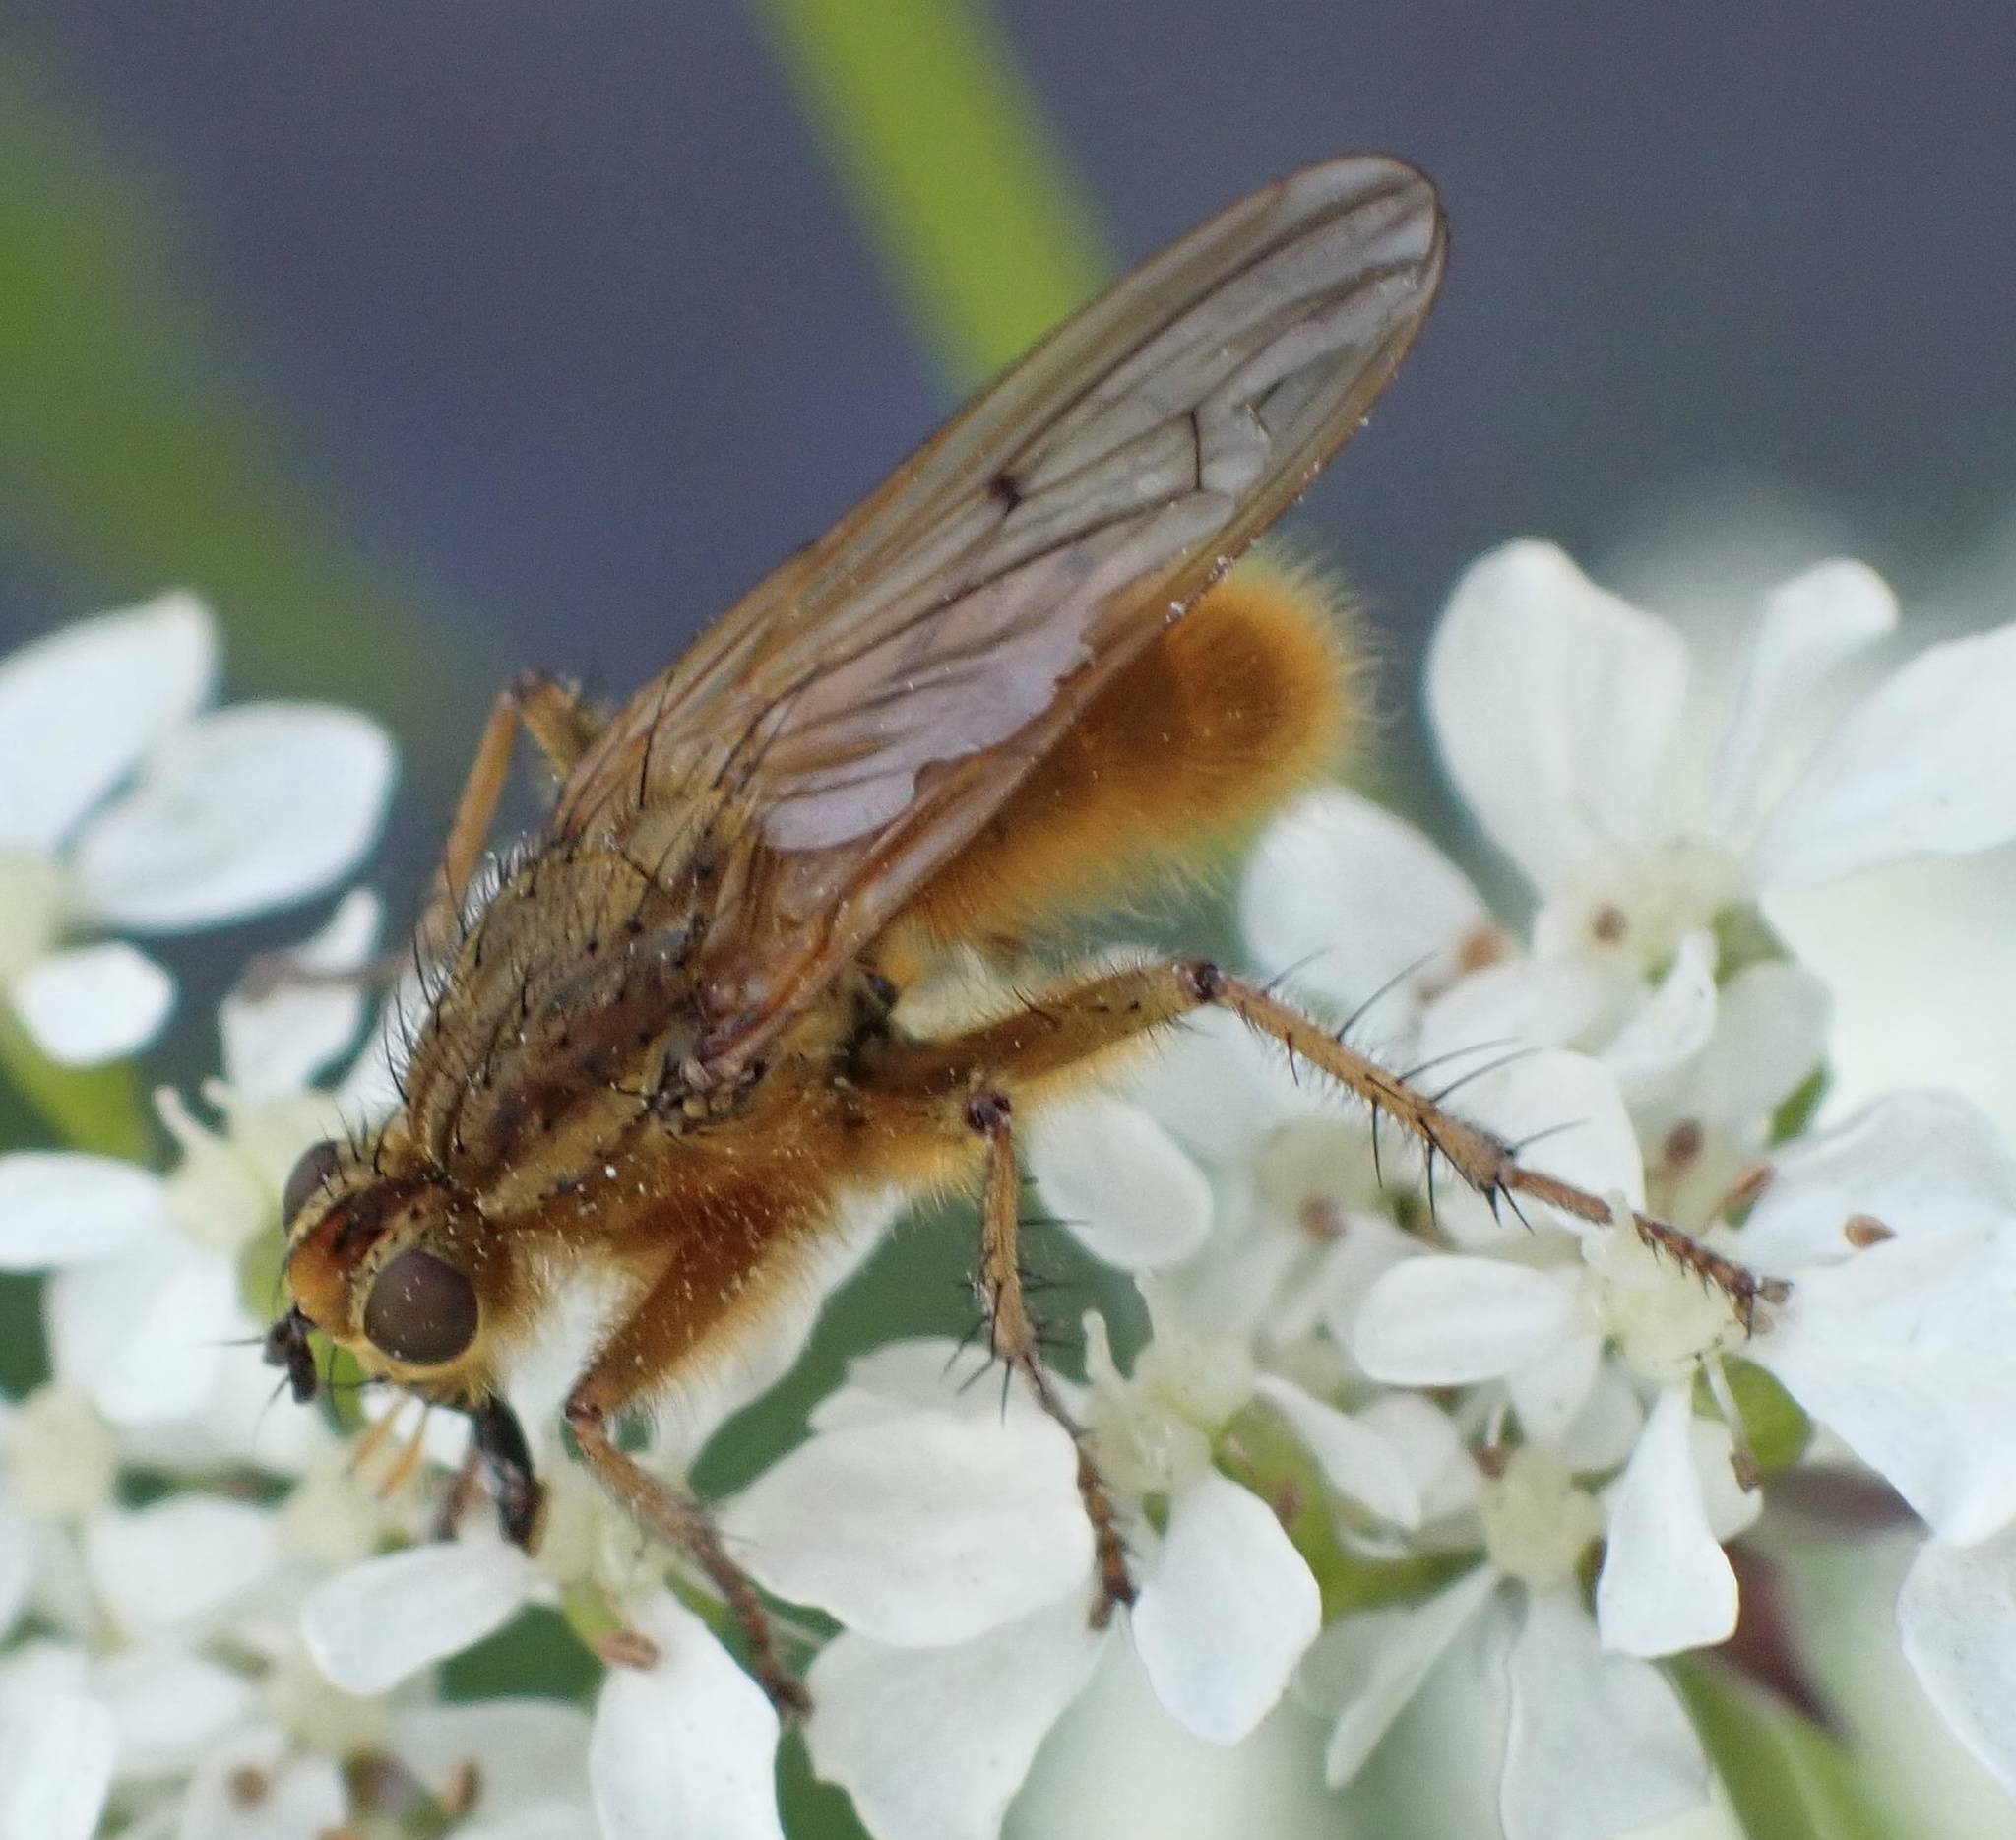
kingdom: Animalia
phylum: Arthropoda
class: Insecta
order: Diptera
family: Scathophagidae
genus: Scathophaga
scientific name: Scathophaga stercoraria
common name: Yellow dung fly
